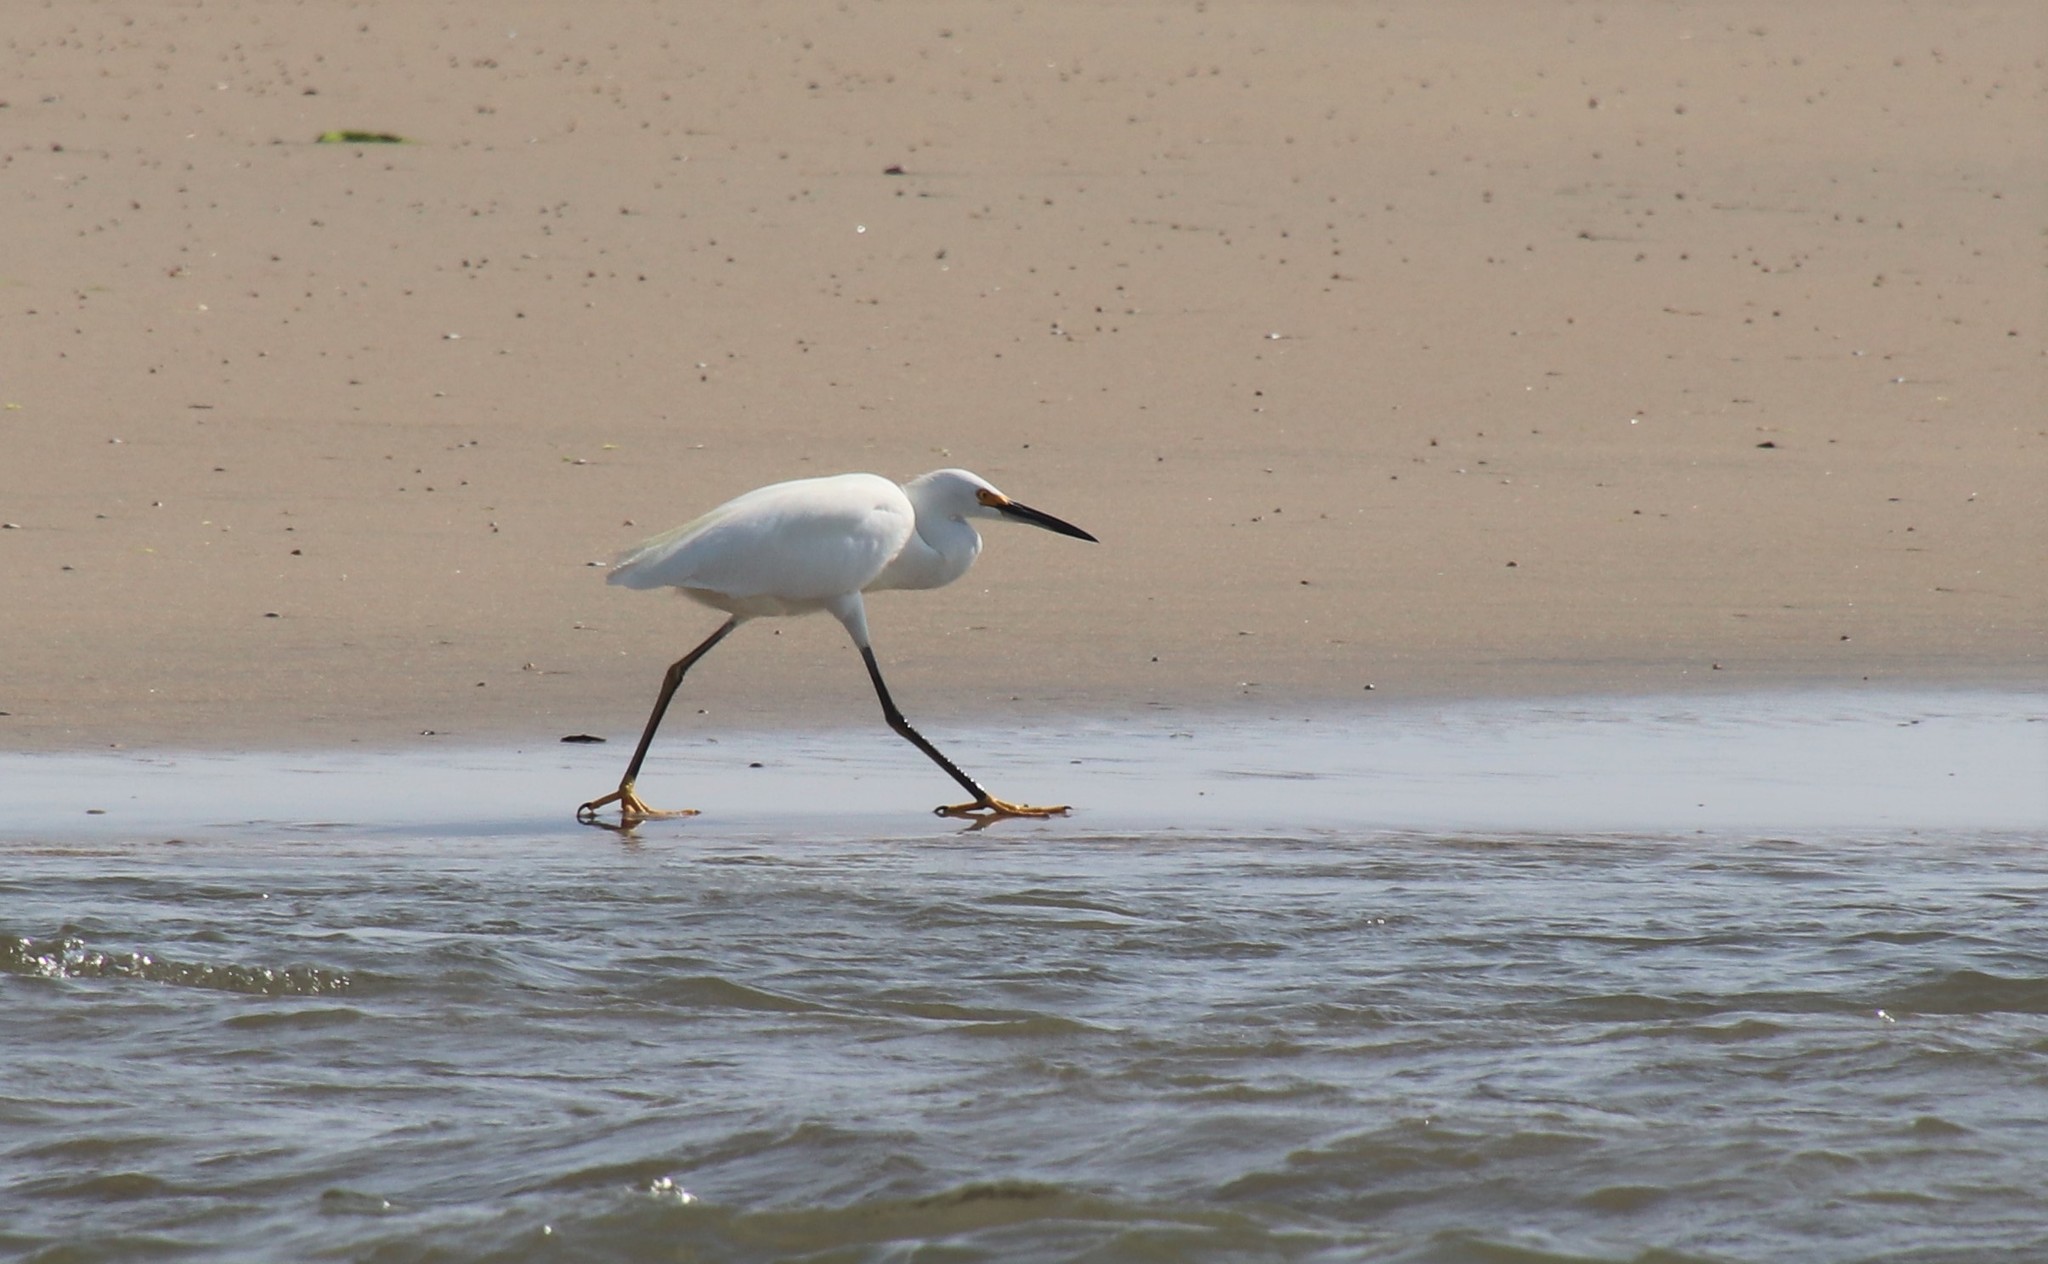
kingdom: Animalia
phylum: Chordata
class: Aves
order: Pelecaniformes
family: Ardeidae
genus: Egretta
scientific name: Egretta thula
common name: Snowy egret
